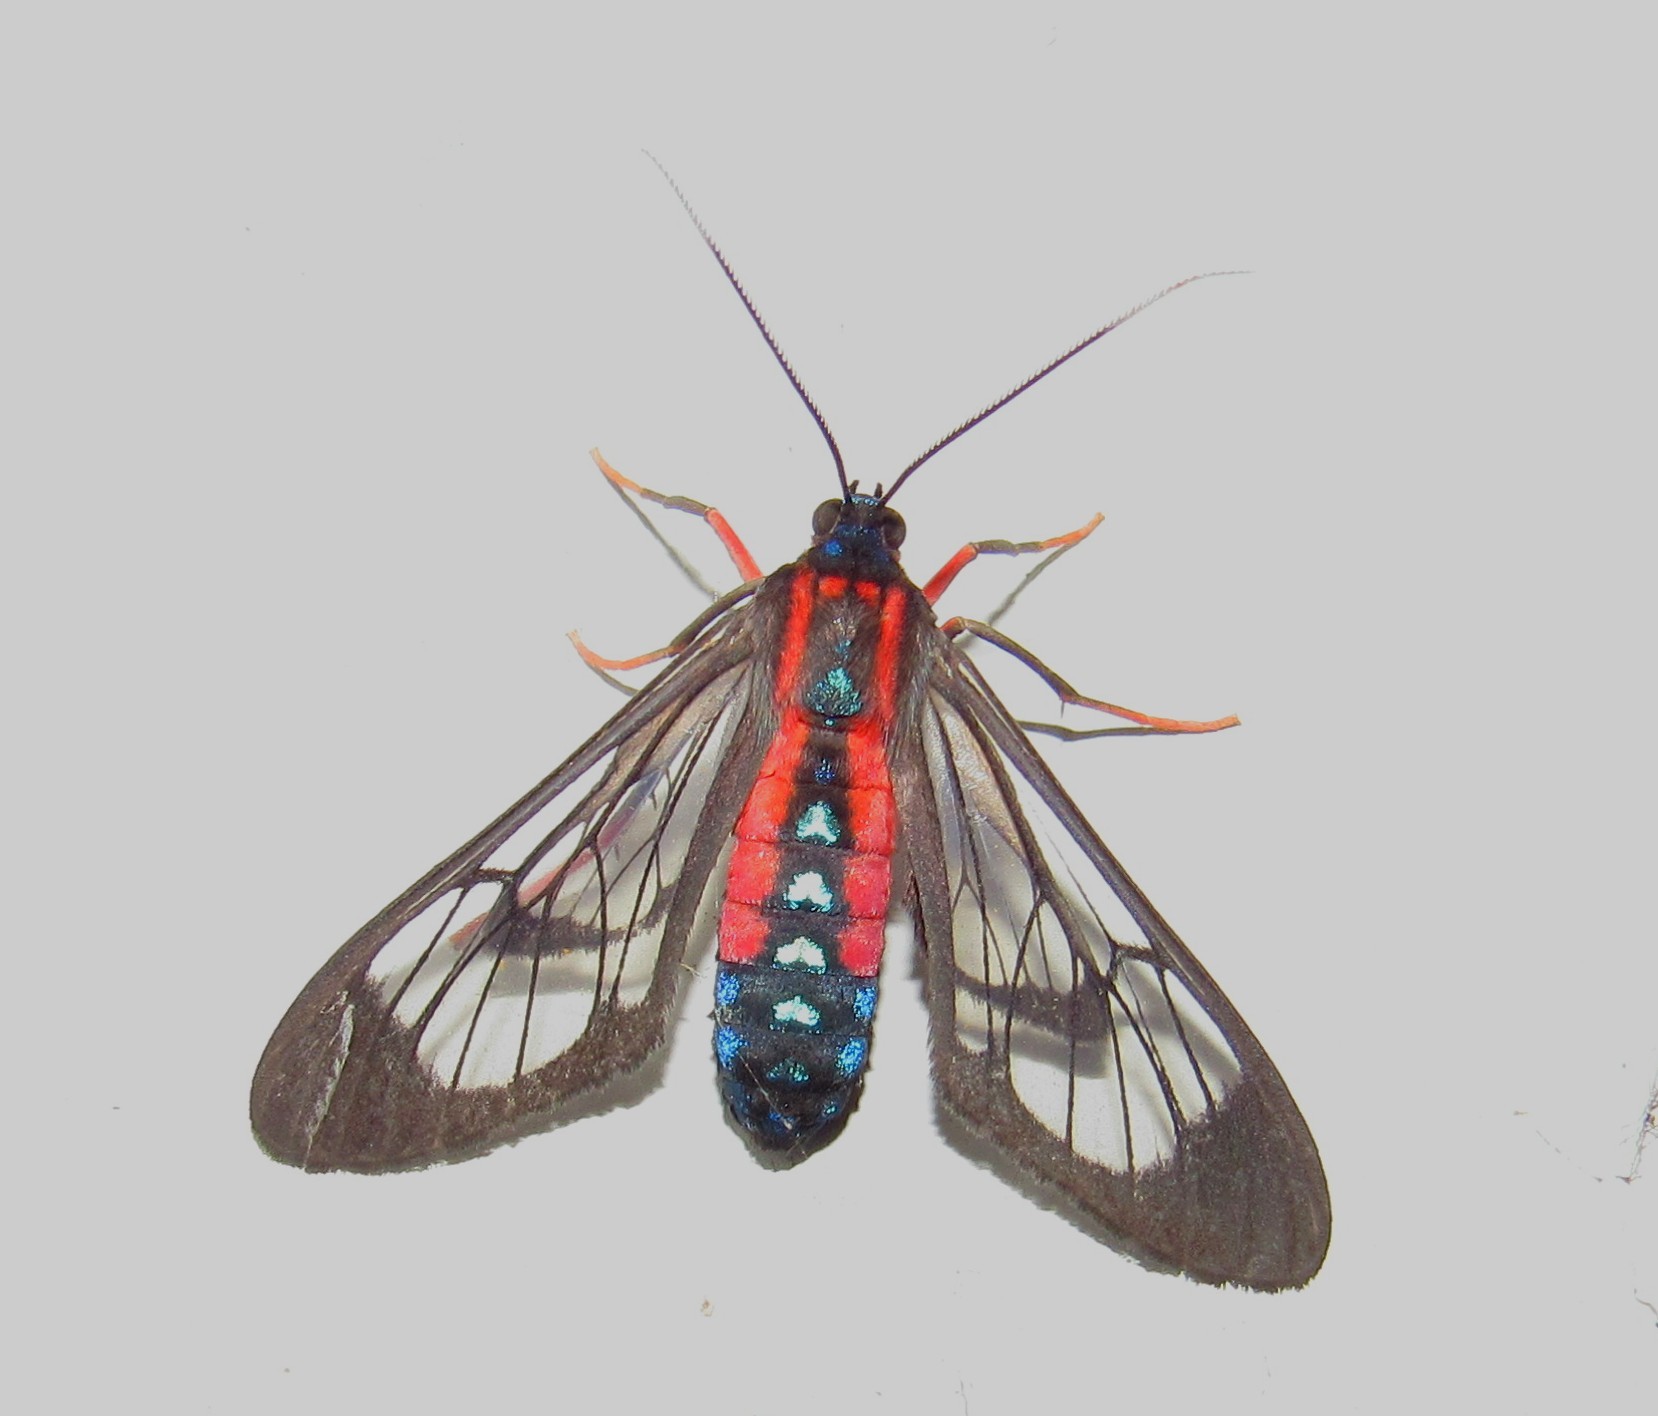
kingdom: Animalia
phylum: Arthropoda
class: Insecta
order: Lepidoptera
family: Erebidae
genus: Cosmosoma
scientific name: Cosmosoma auge
